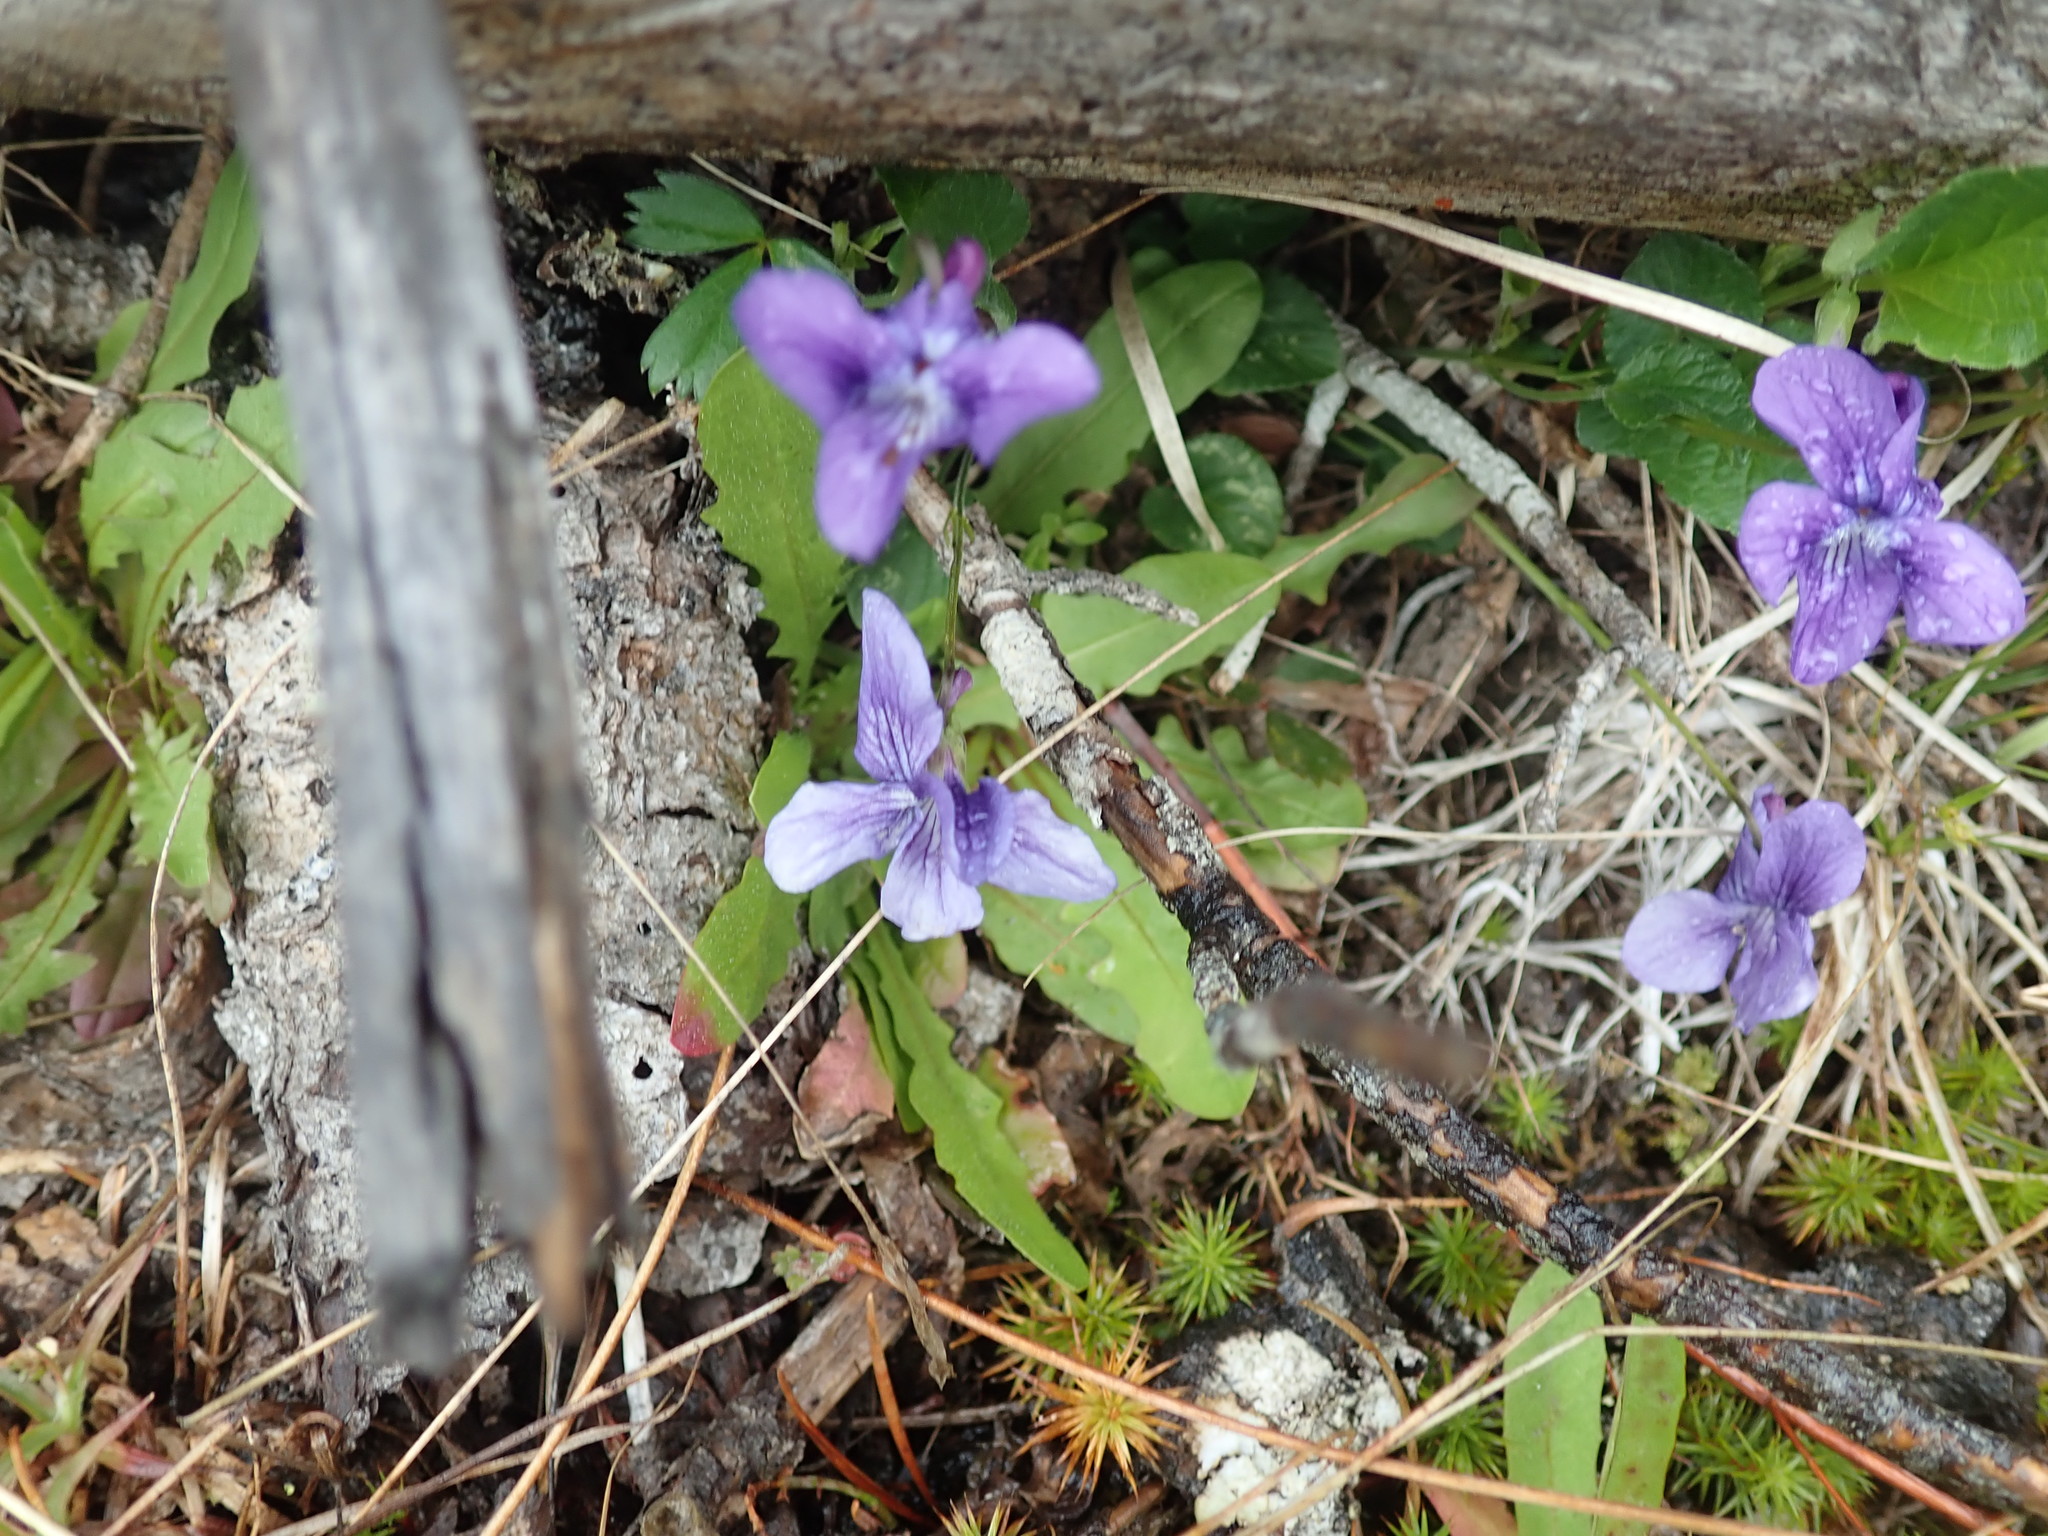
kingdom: Plantae
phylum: Tracheophyta
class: Magnoliopsida
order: Malpighiales
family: Violaceae
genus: Viola
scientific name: Viola adunca
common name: Sand violet
